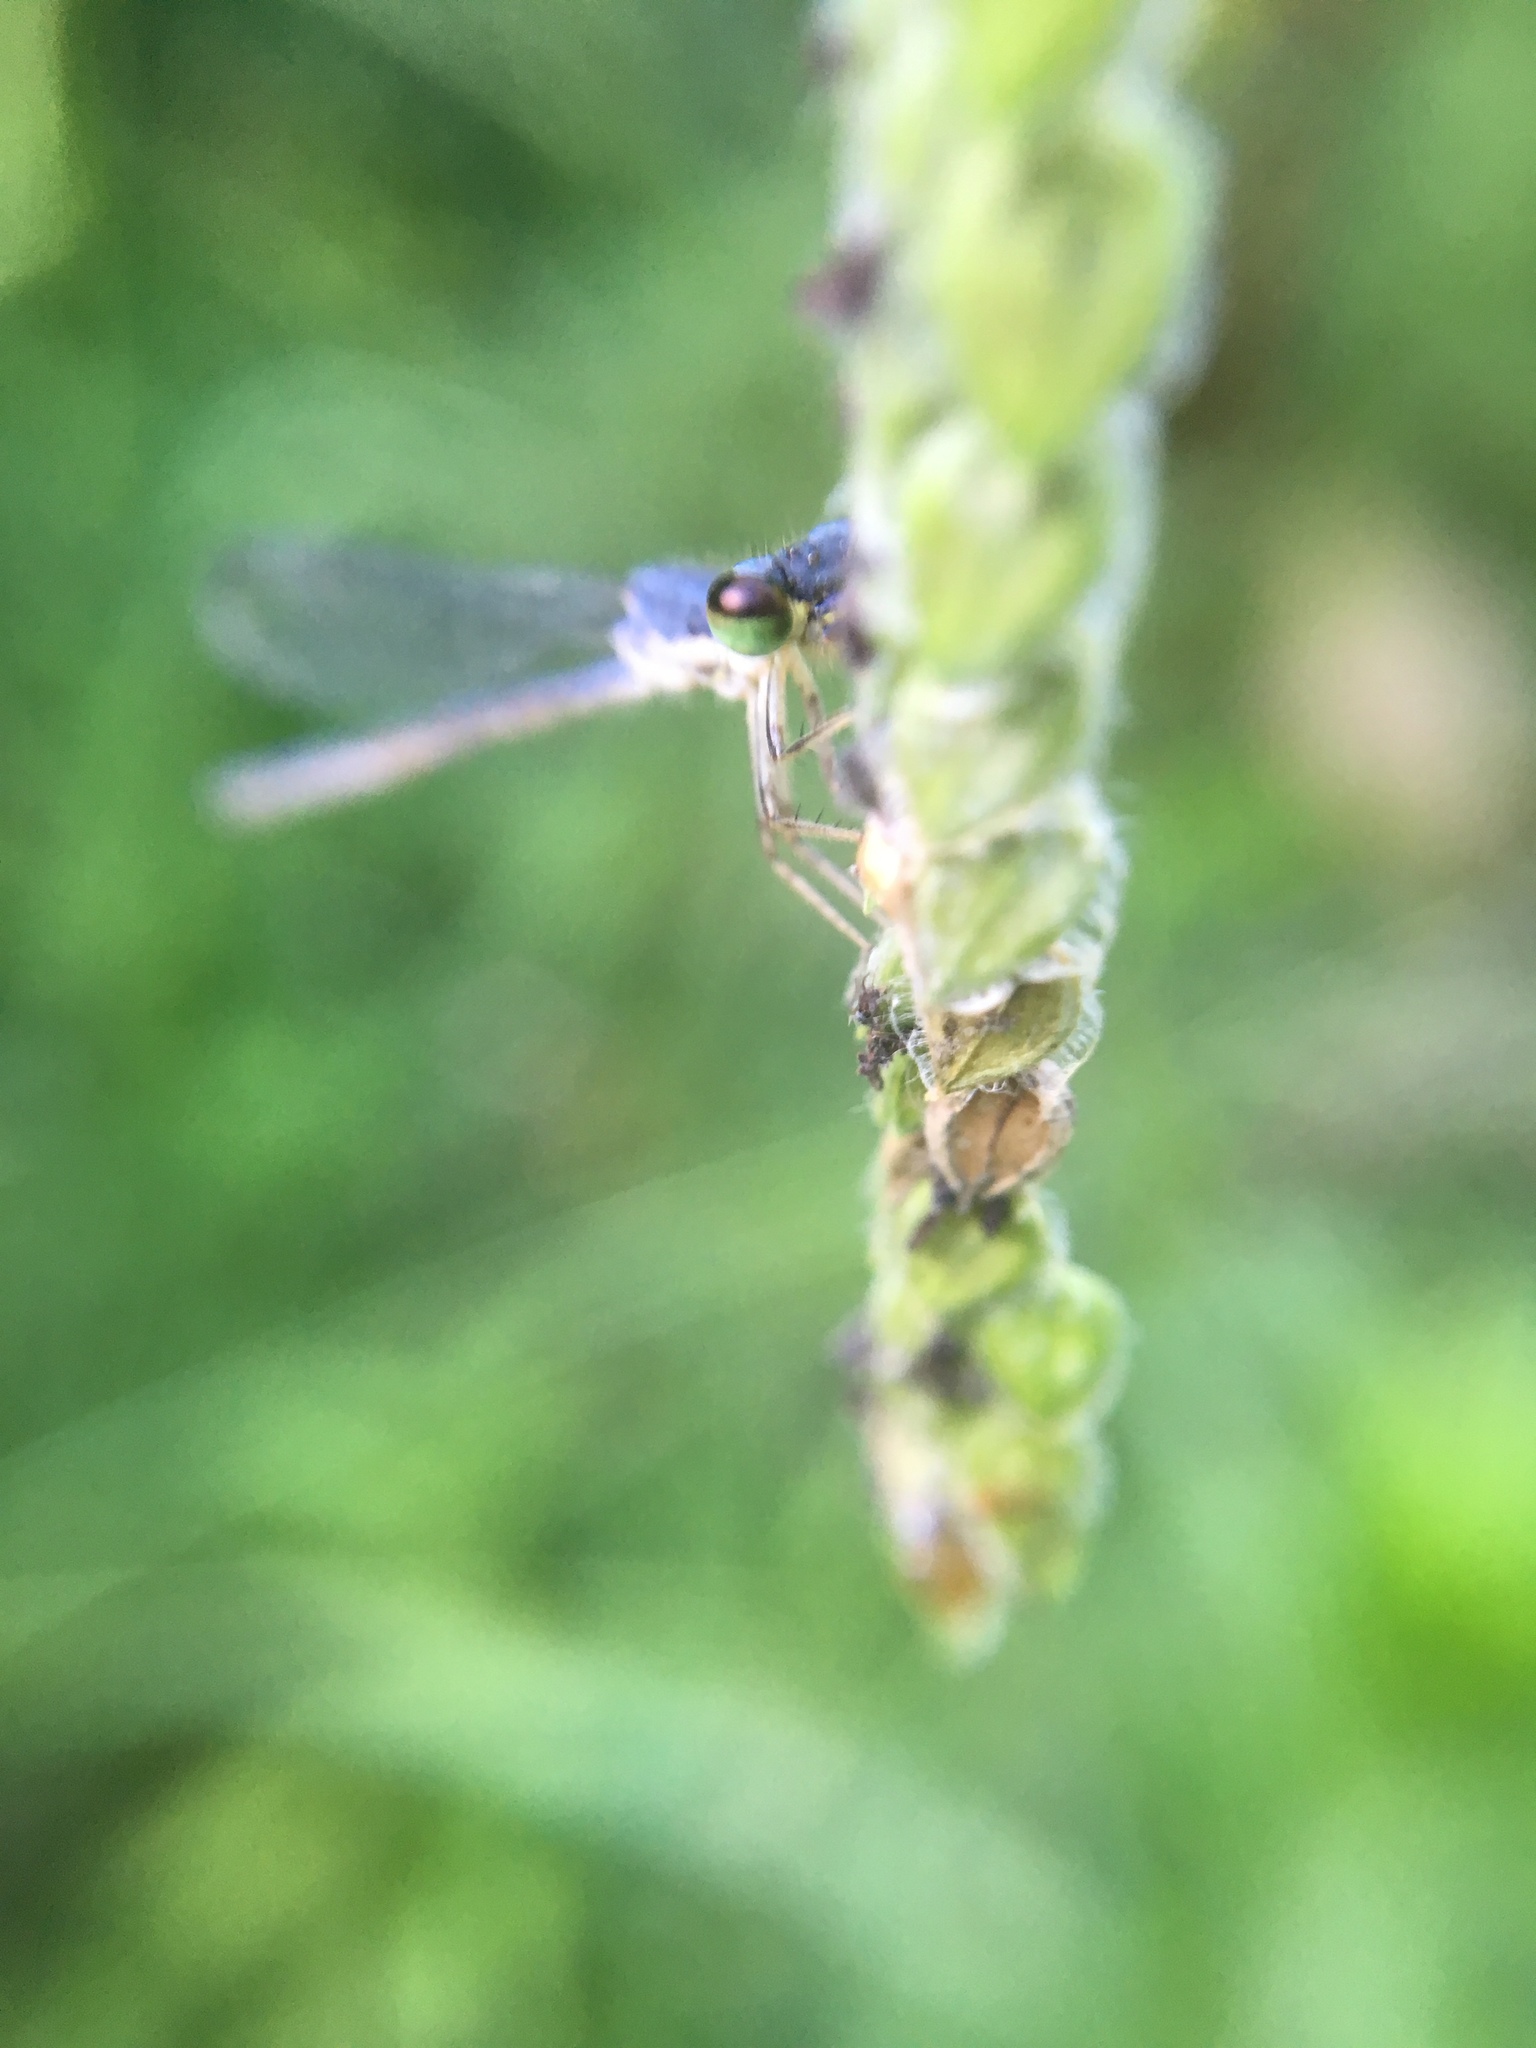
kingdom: Animalia
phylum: Arthropoda
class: Insecta
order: Odonata
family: Coenagrionidae
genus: Ischnura
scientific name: Ischnura posita
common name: Fragile forktail
